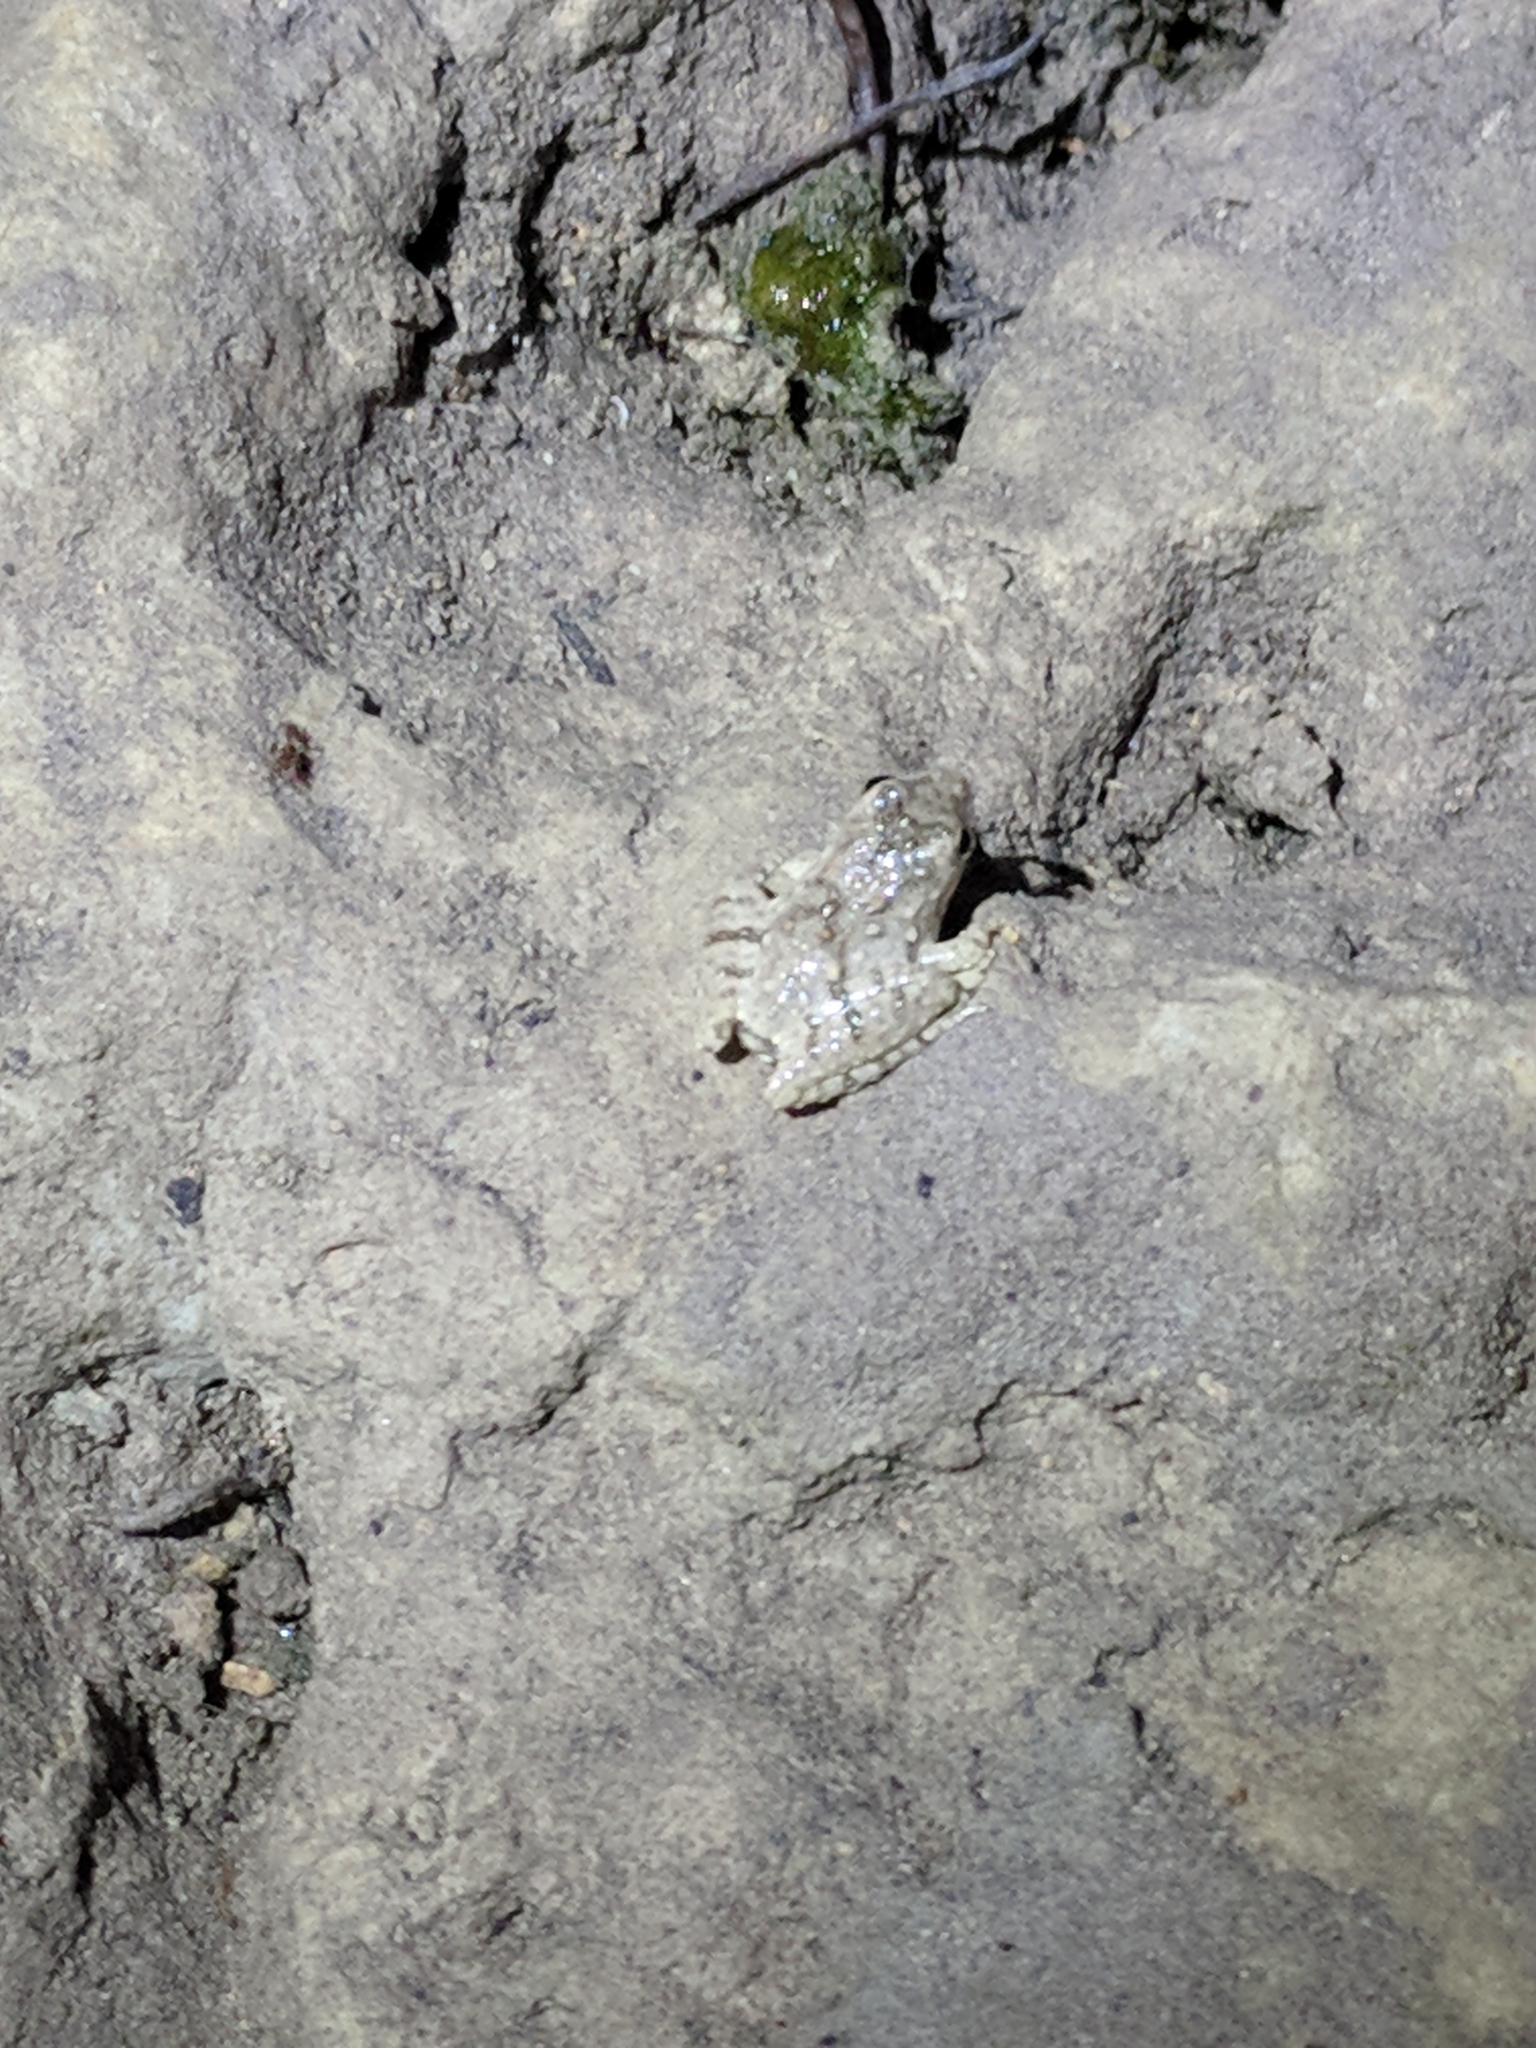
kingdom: Animalia
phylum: Chordata
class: Amphibia
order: Anura
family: Hylidae
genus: Acris
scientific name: Acris blanchardi
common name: Blanchard's cricket frog
